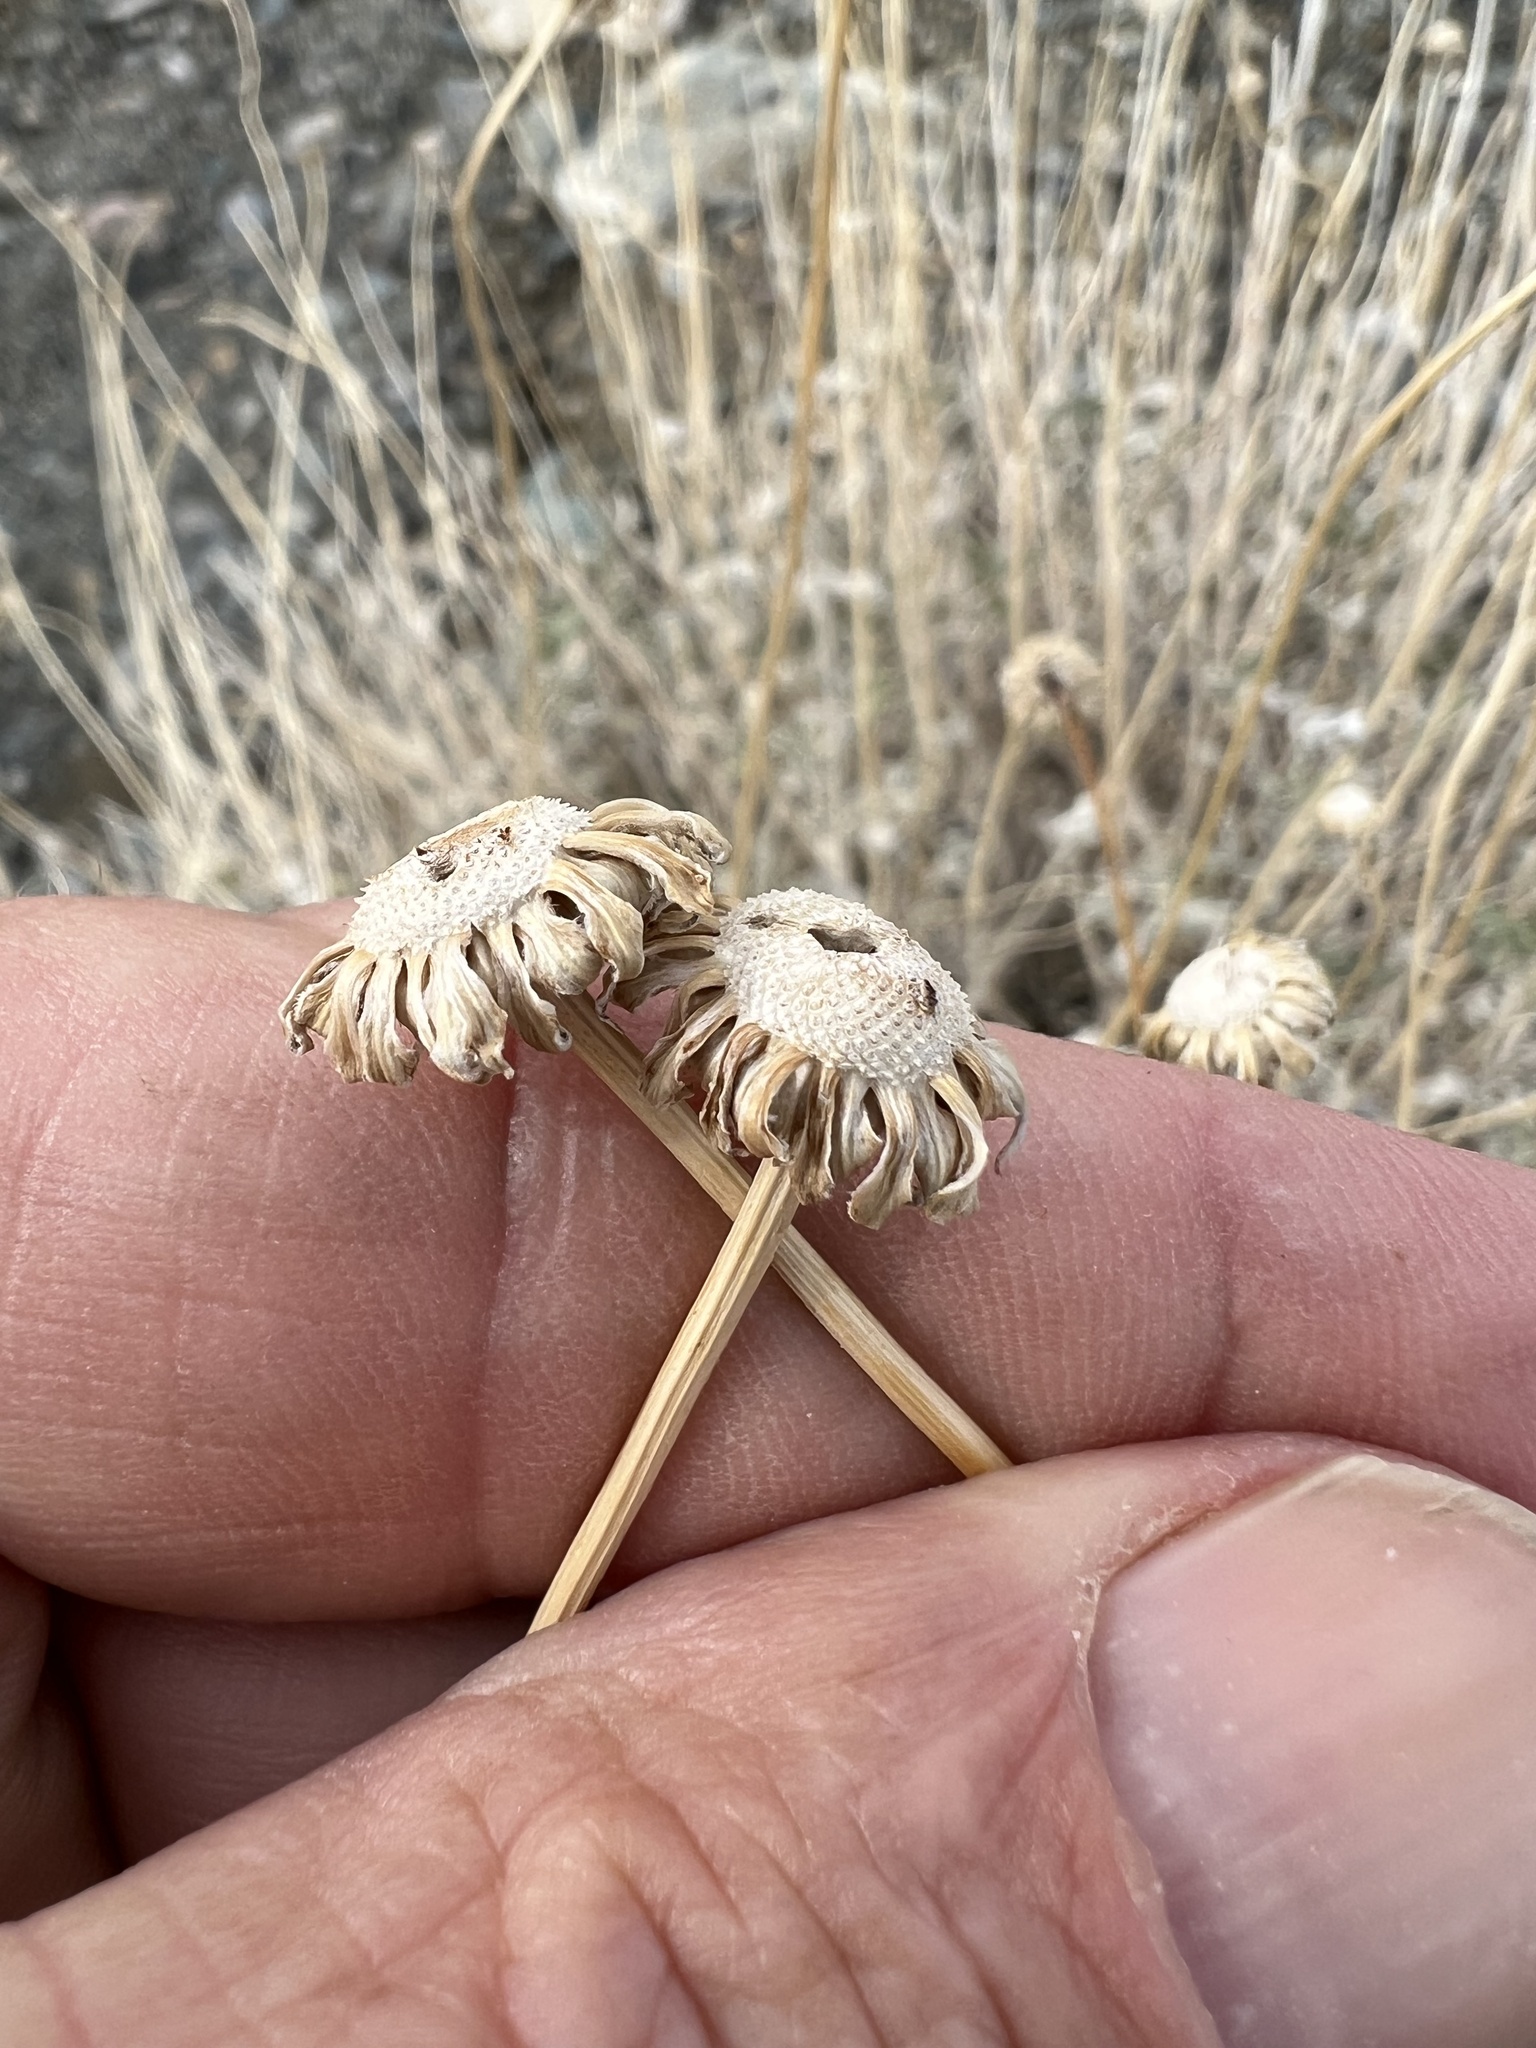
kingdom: Plantae
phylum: Tracheophyta
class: Magnoliopsida
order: Asterales
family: Asteraceae
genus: Encelia
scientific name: Encelia actoni
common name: Acton encelia
